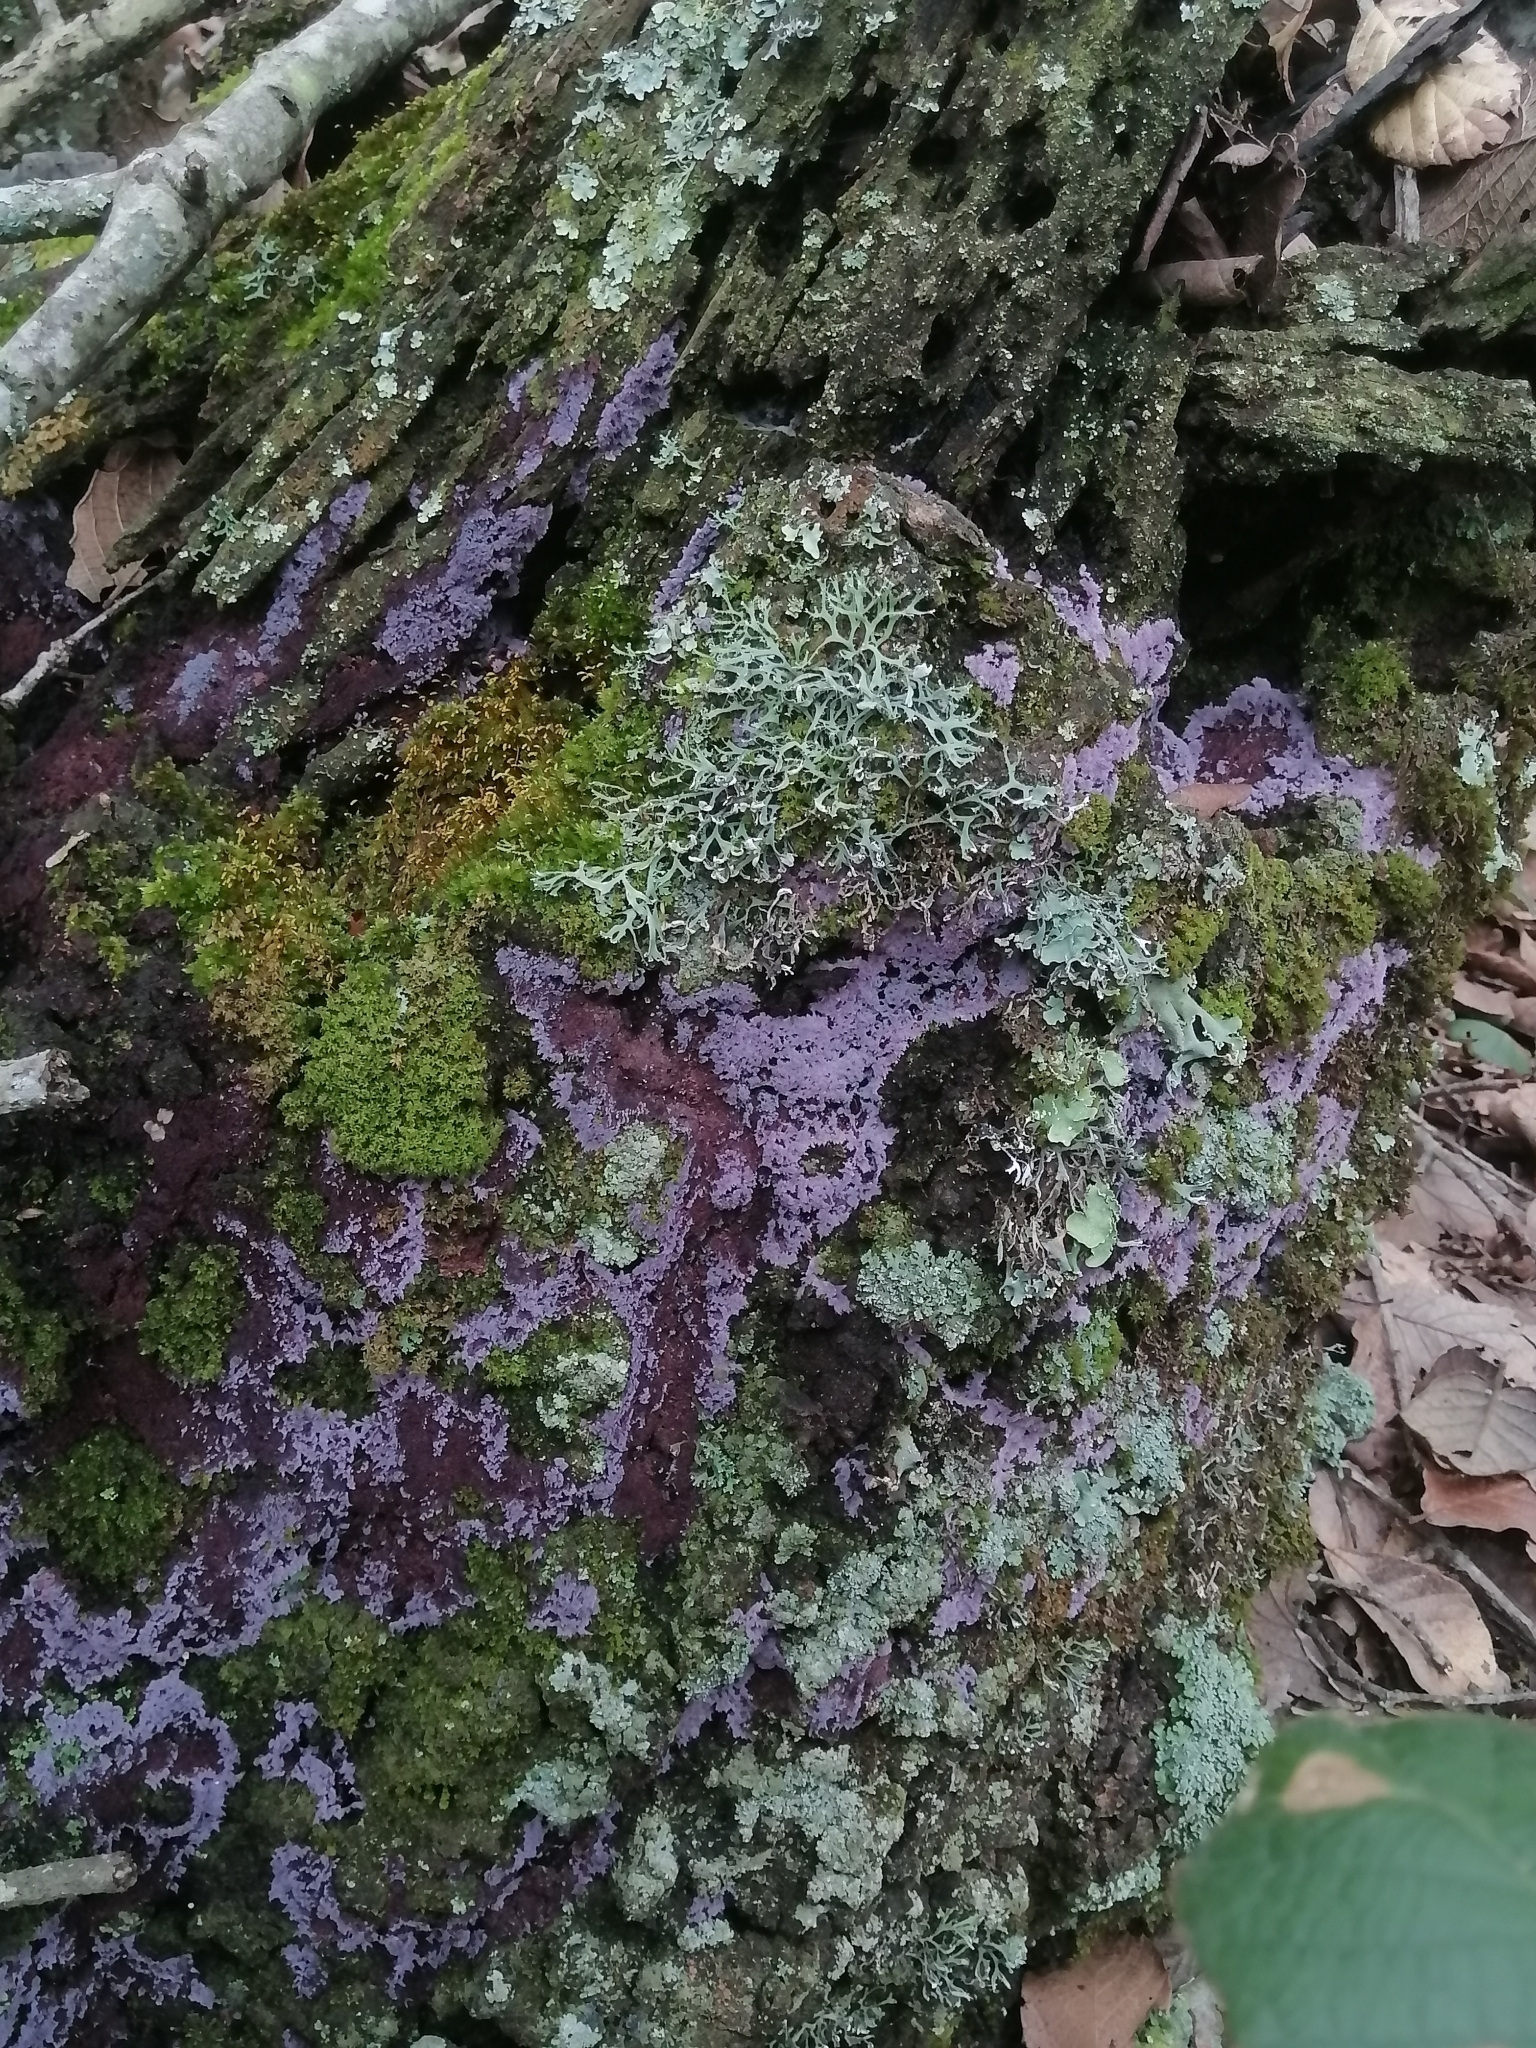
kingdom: Fungi
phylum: Basidiomycota
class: Agaricomycetes
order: Corticiales
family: Punctulariaceae
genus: Punctularia
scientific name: Punctularia atropurpurascens
